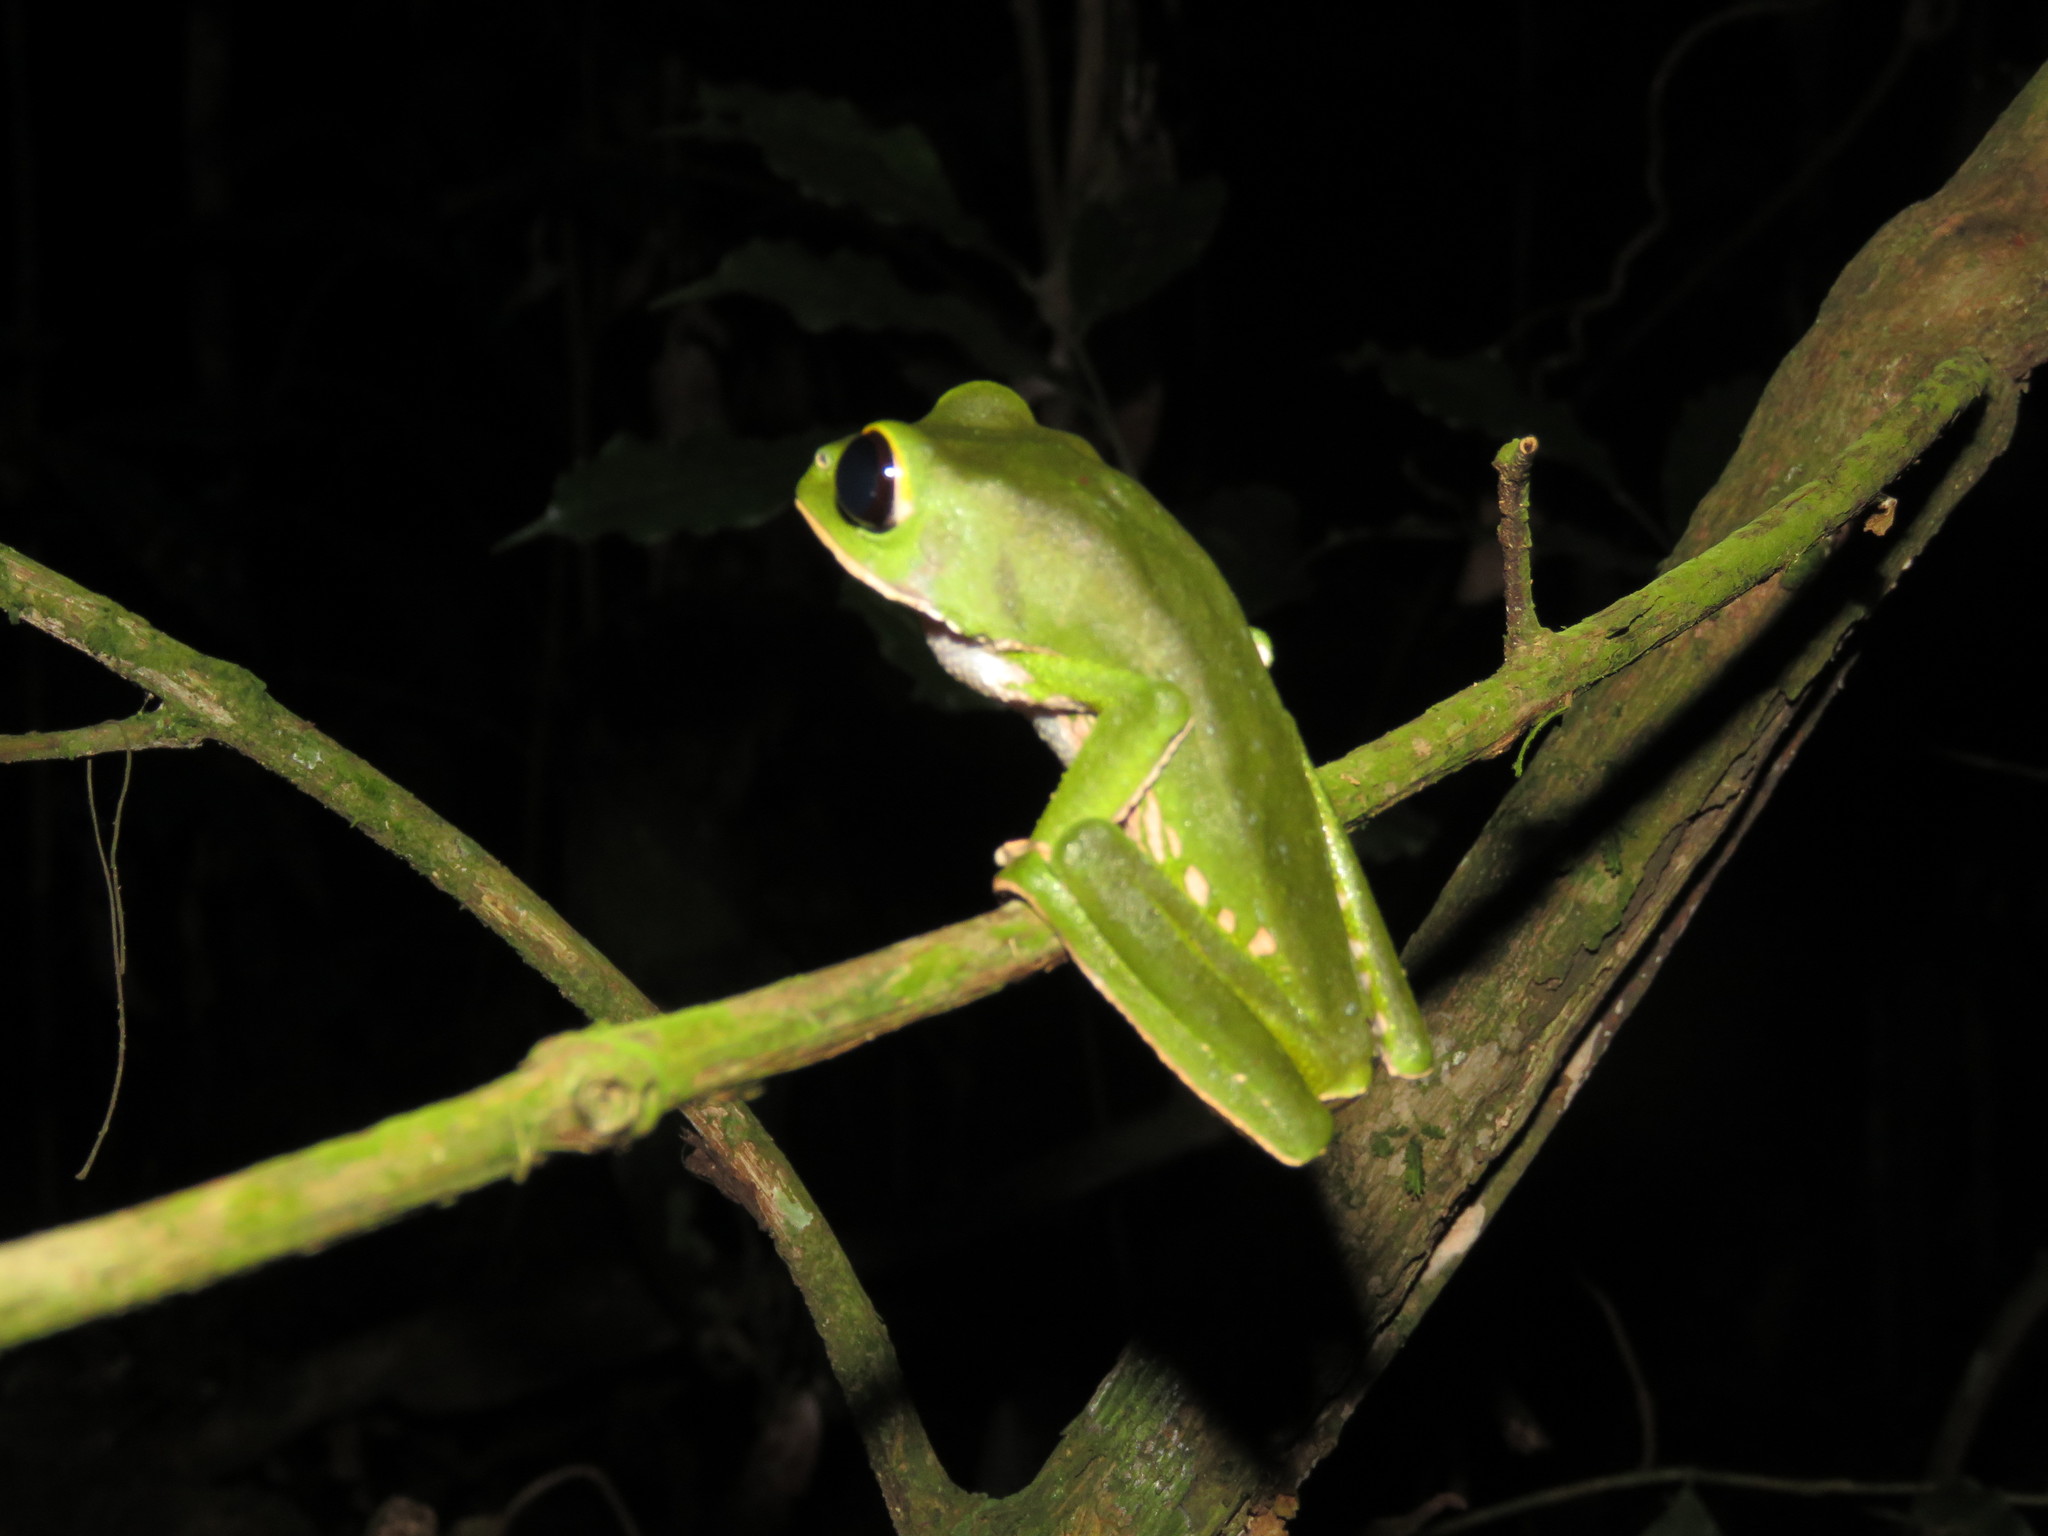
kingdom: Animalia
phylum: Chordata
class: Amphibia
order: Anura
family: Phyllomedusidae
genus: Phyllomedusa
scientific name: Phyllomedusa camba
